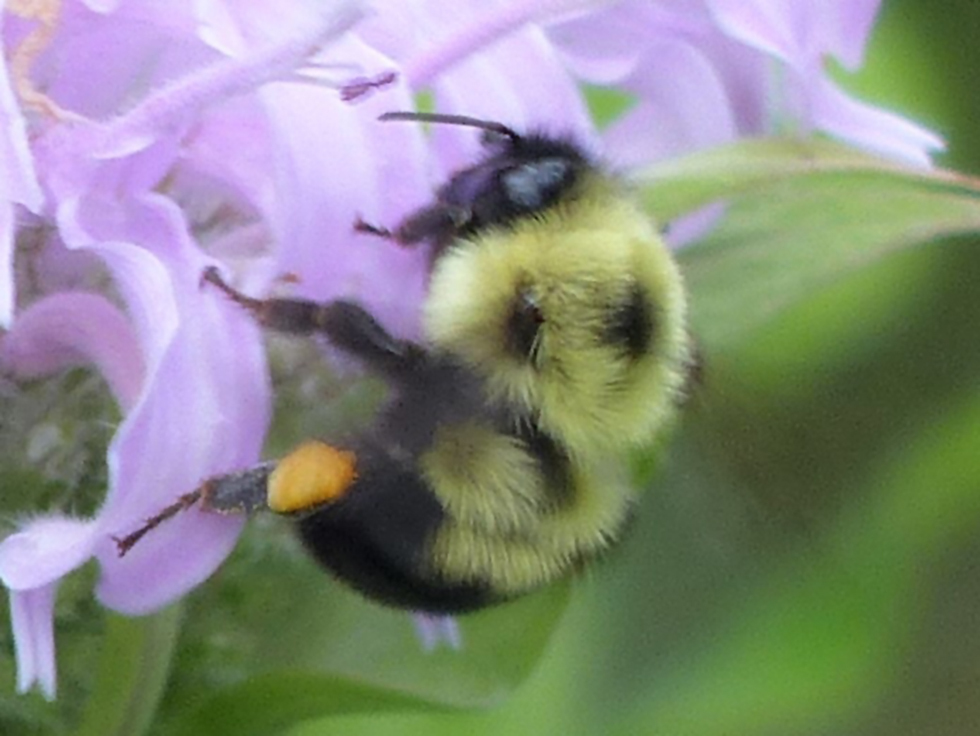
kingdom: Animalia
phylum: Arthropoda
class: Insecta
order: Hymenoptera
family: Apidae
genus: Bombus
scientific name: Bombus bimaculatus
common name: Two-spotted bumble bee
